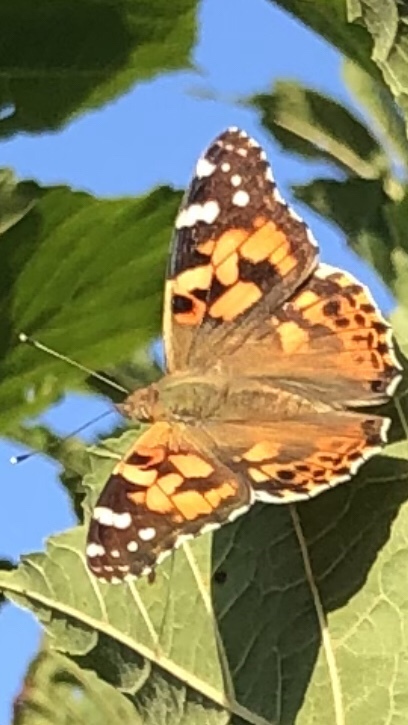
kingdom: Animalia
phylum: Arthropoda
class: Insecta
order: Lepidoptera
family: Nymphalidae
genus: Vanessa
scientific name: Vanessa cardui
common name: Painted lady
